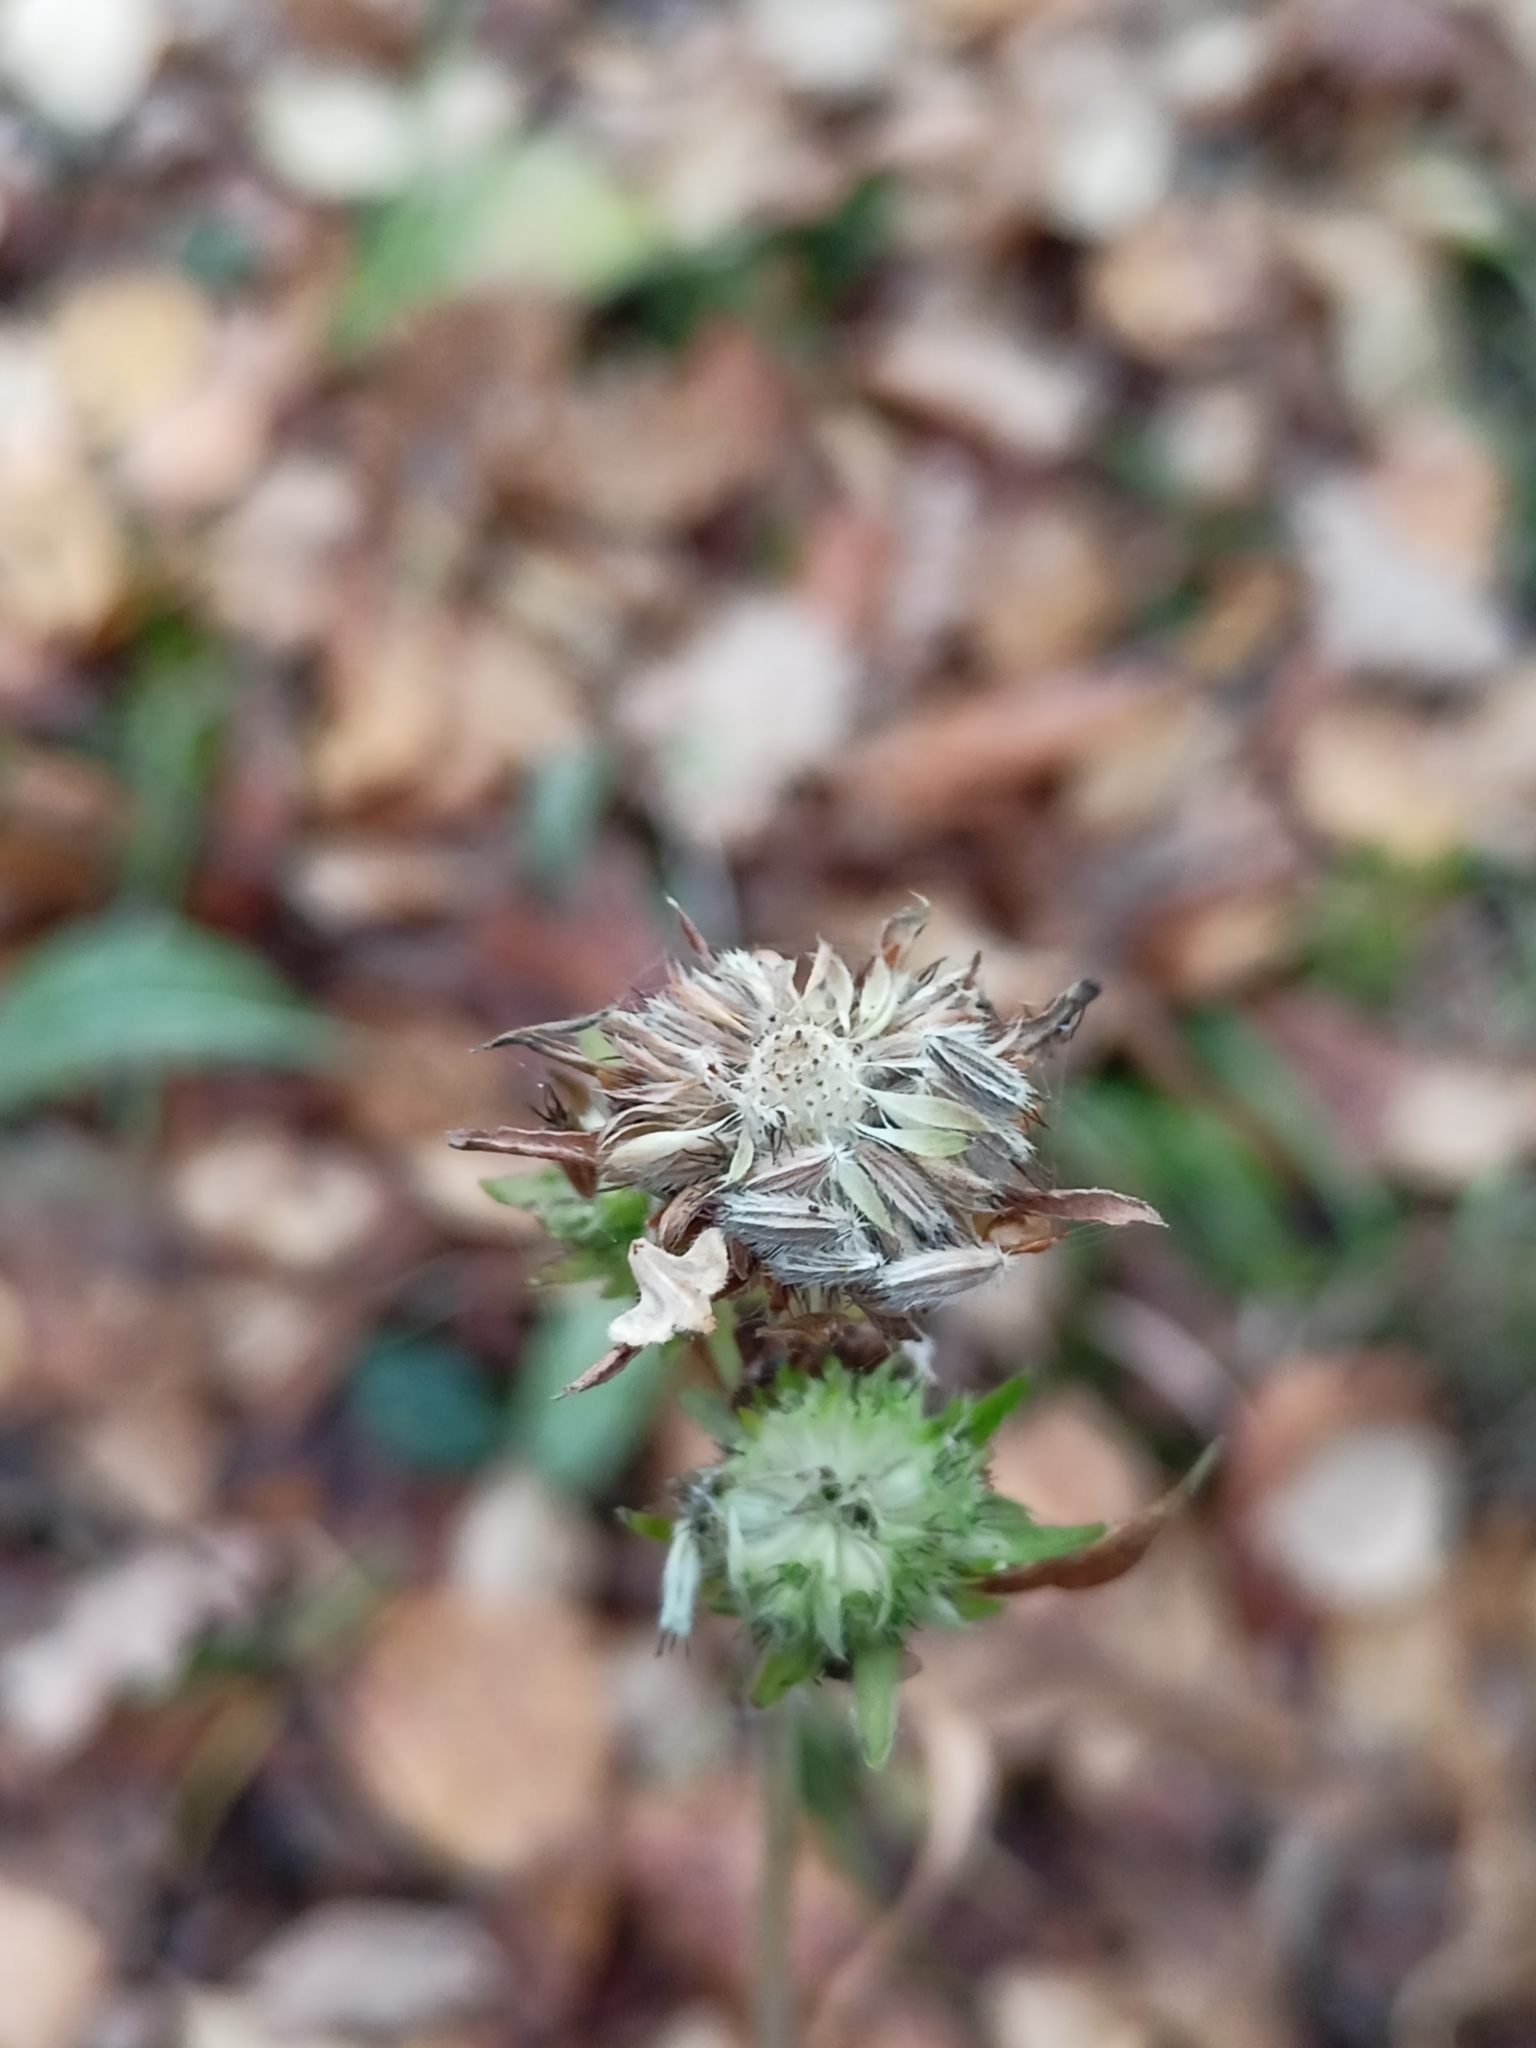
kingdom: Plantae
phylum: Tracheophyta
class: Magnoliopsida
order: Dipsacales
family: Caprifoliaceae
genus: Succisa
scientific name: Succisa pratensis
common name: Devil's-bit
